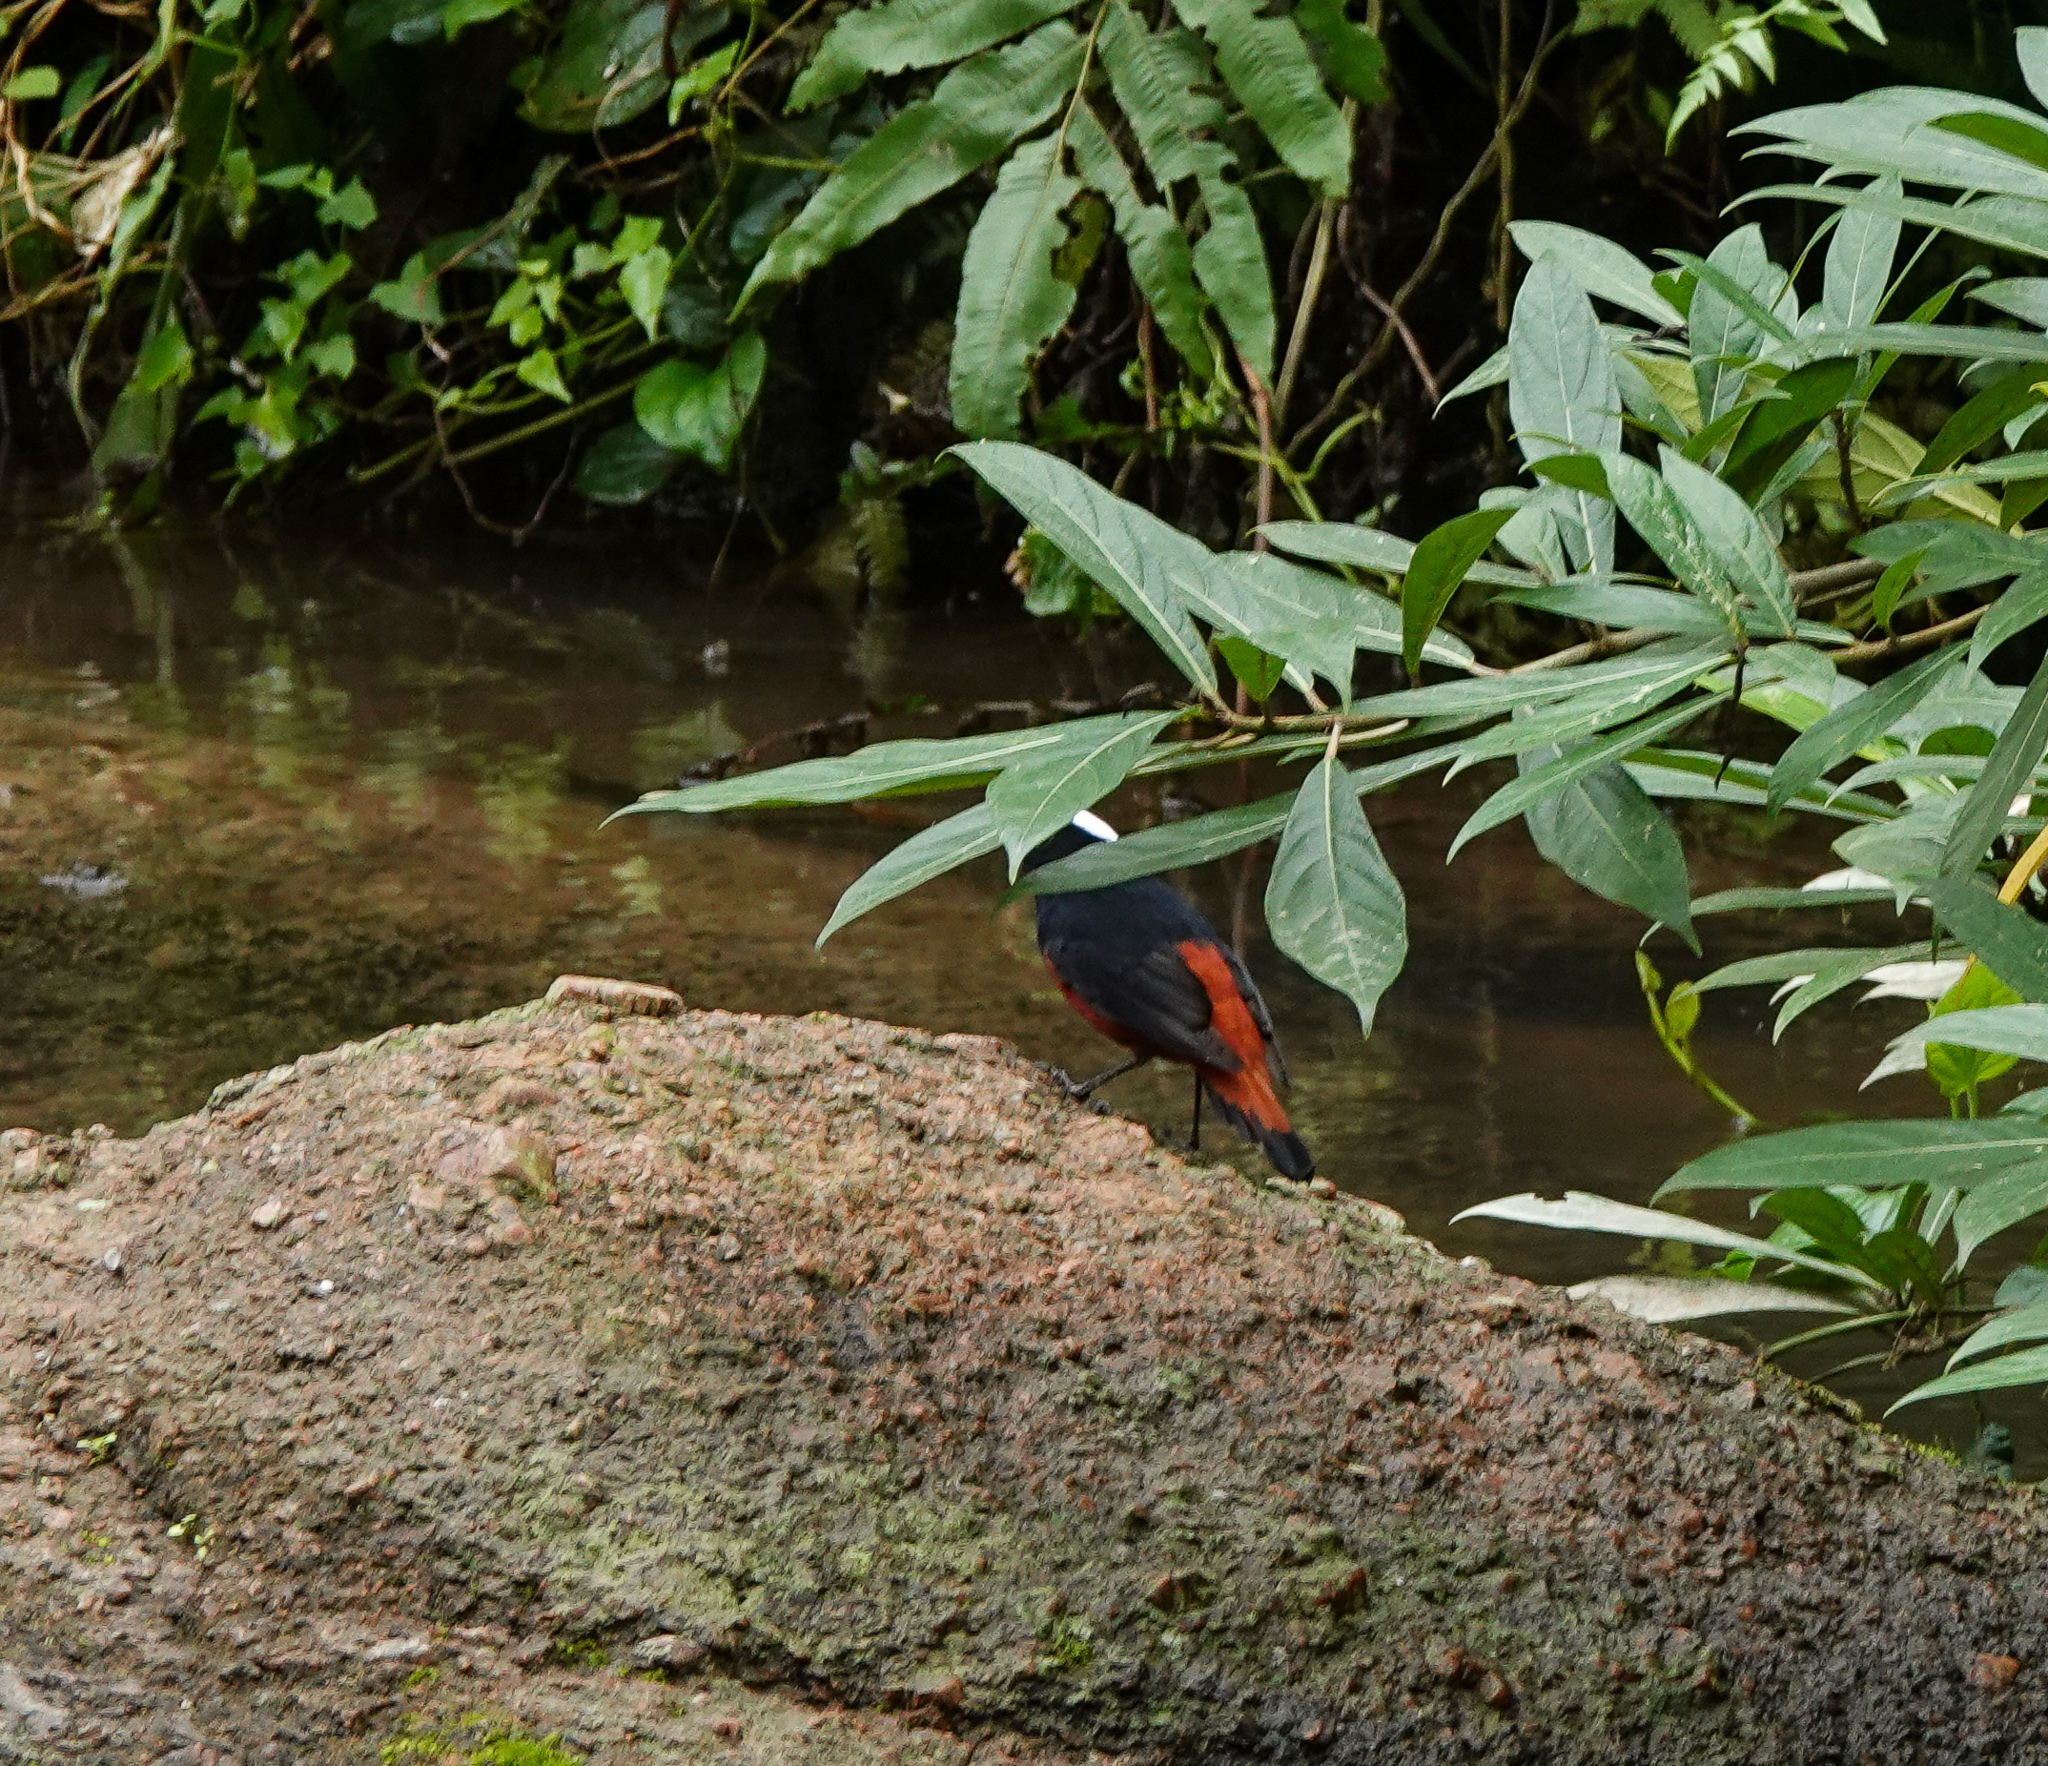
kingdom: Animalia
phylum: Chordata
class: Aves
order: Passeriformes
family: Muscicapidae
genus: Chaimarrornis
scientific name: Chaimarrornis leucocephalus
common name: White-capped redstart
